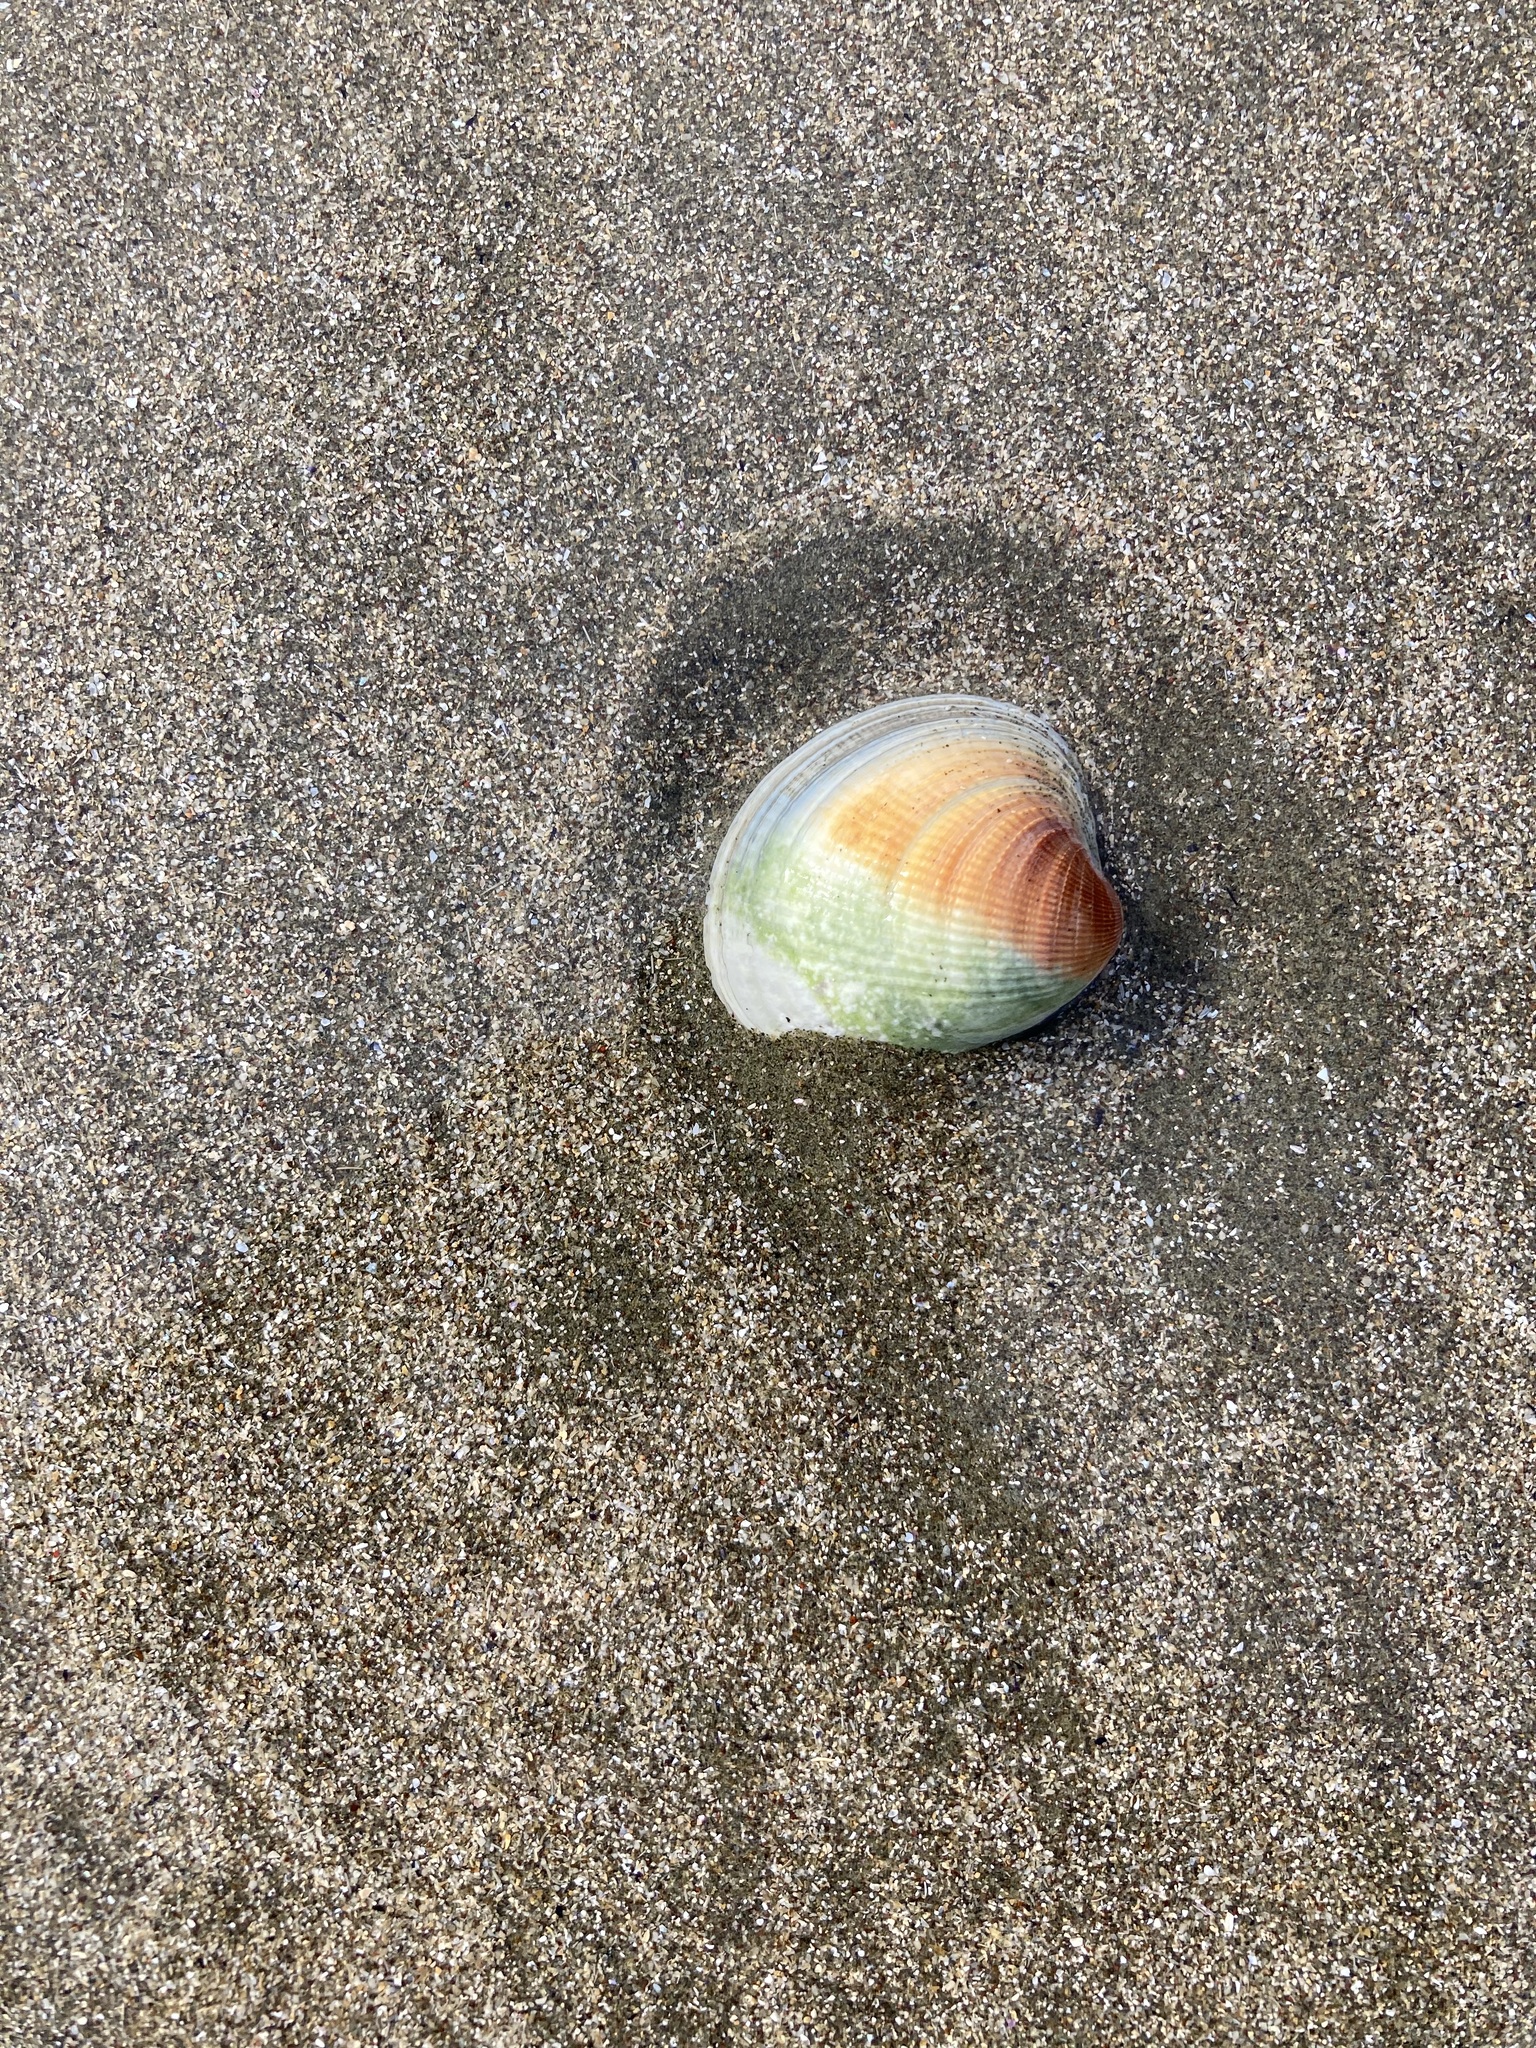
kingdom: Animalia
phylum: Mollusca
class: Bivalvia
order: Venerida
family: Veneridae
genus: Austrovenus
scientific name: Austrovenus stutchburyi
